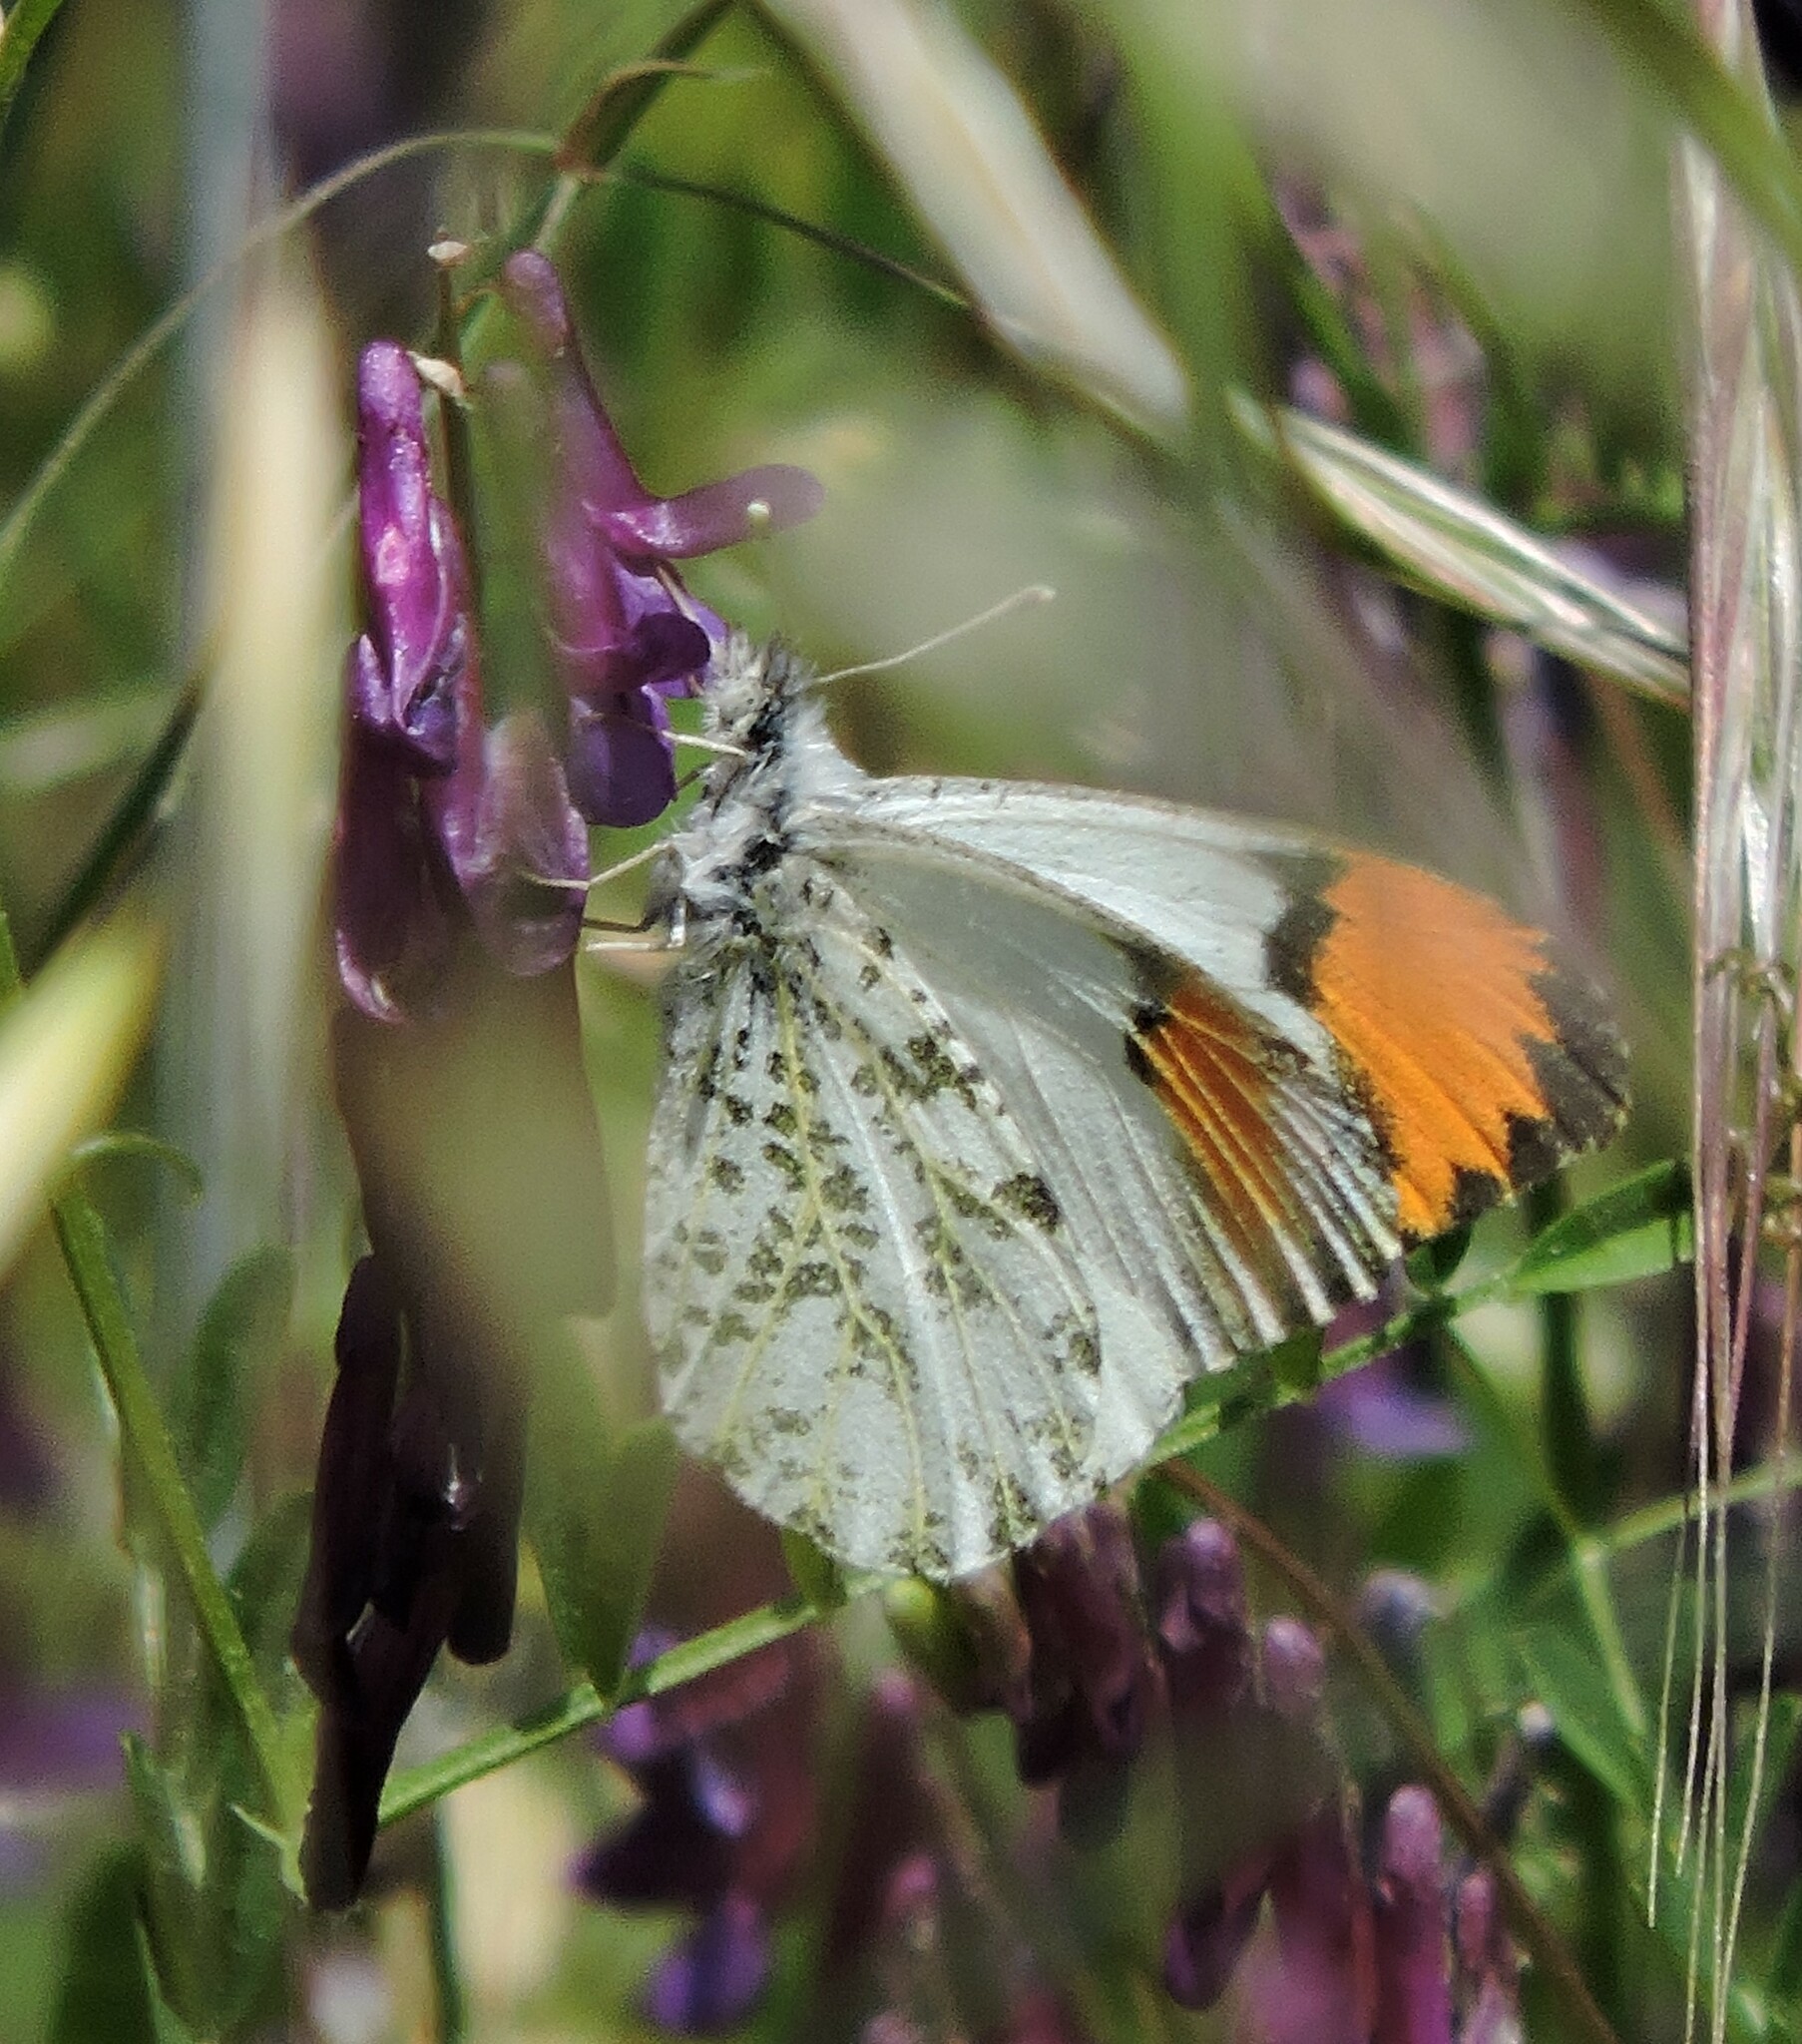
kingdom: Animalia
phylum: Arthropoda
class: Insecta
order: Lepidoptera
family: Pieridae
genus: Anthocharis
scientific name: Anthocharis sara
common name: Sara's orangetip
